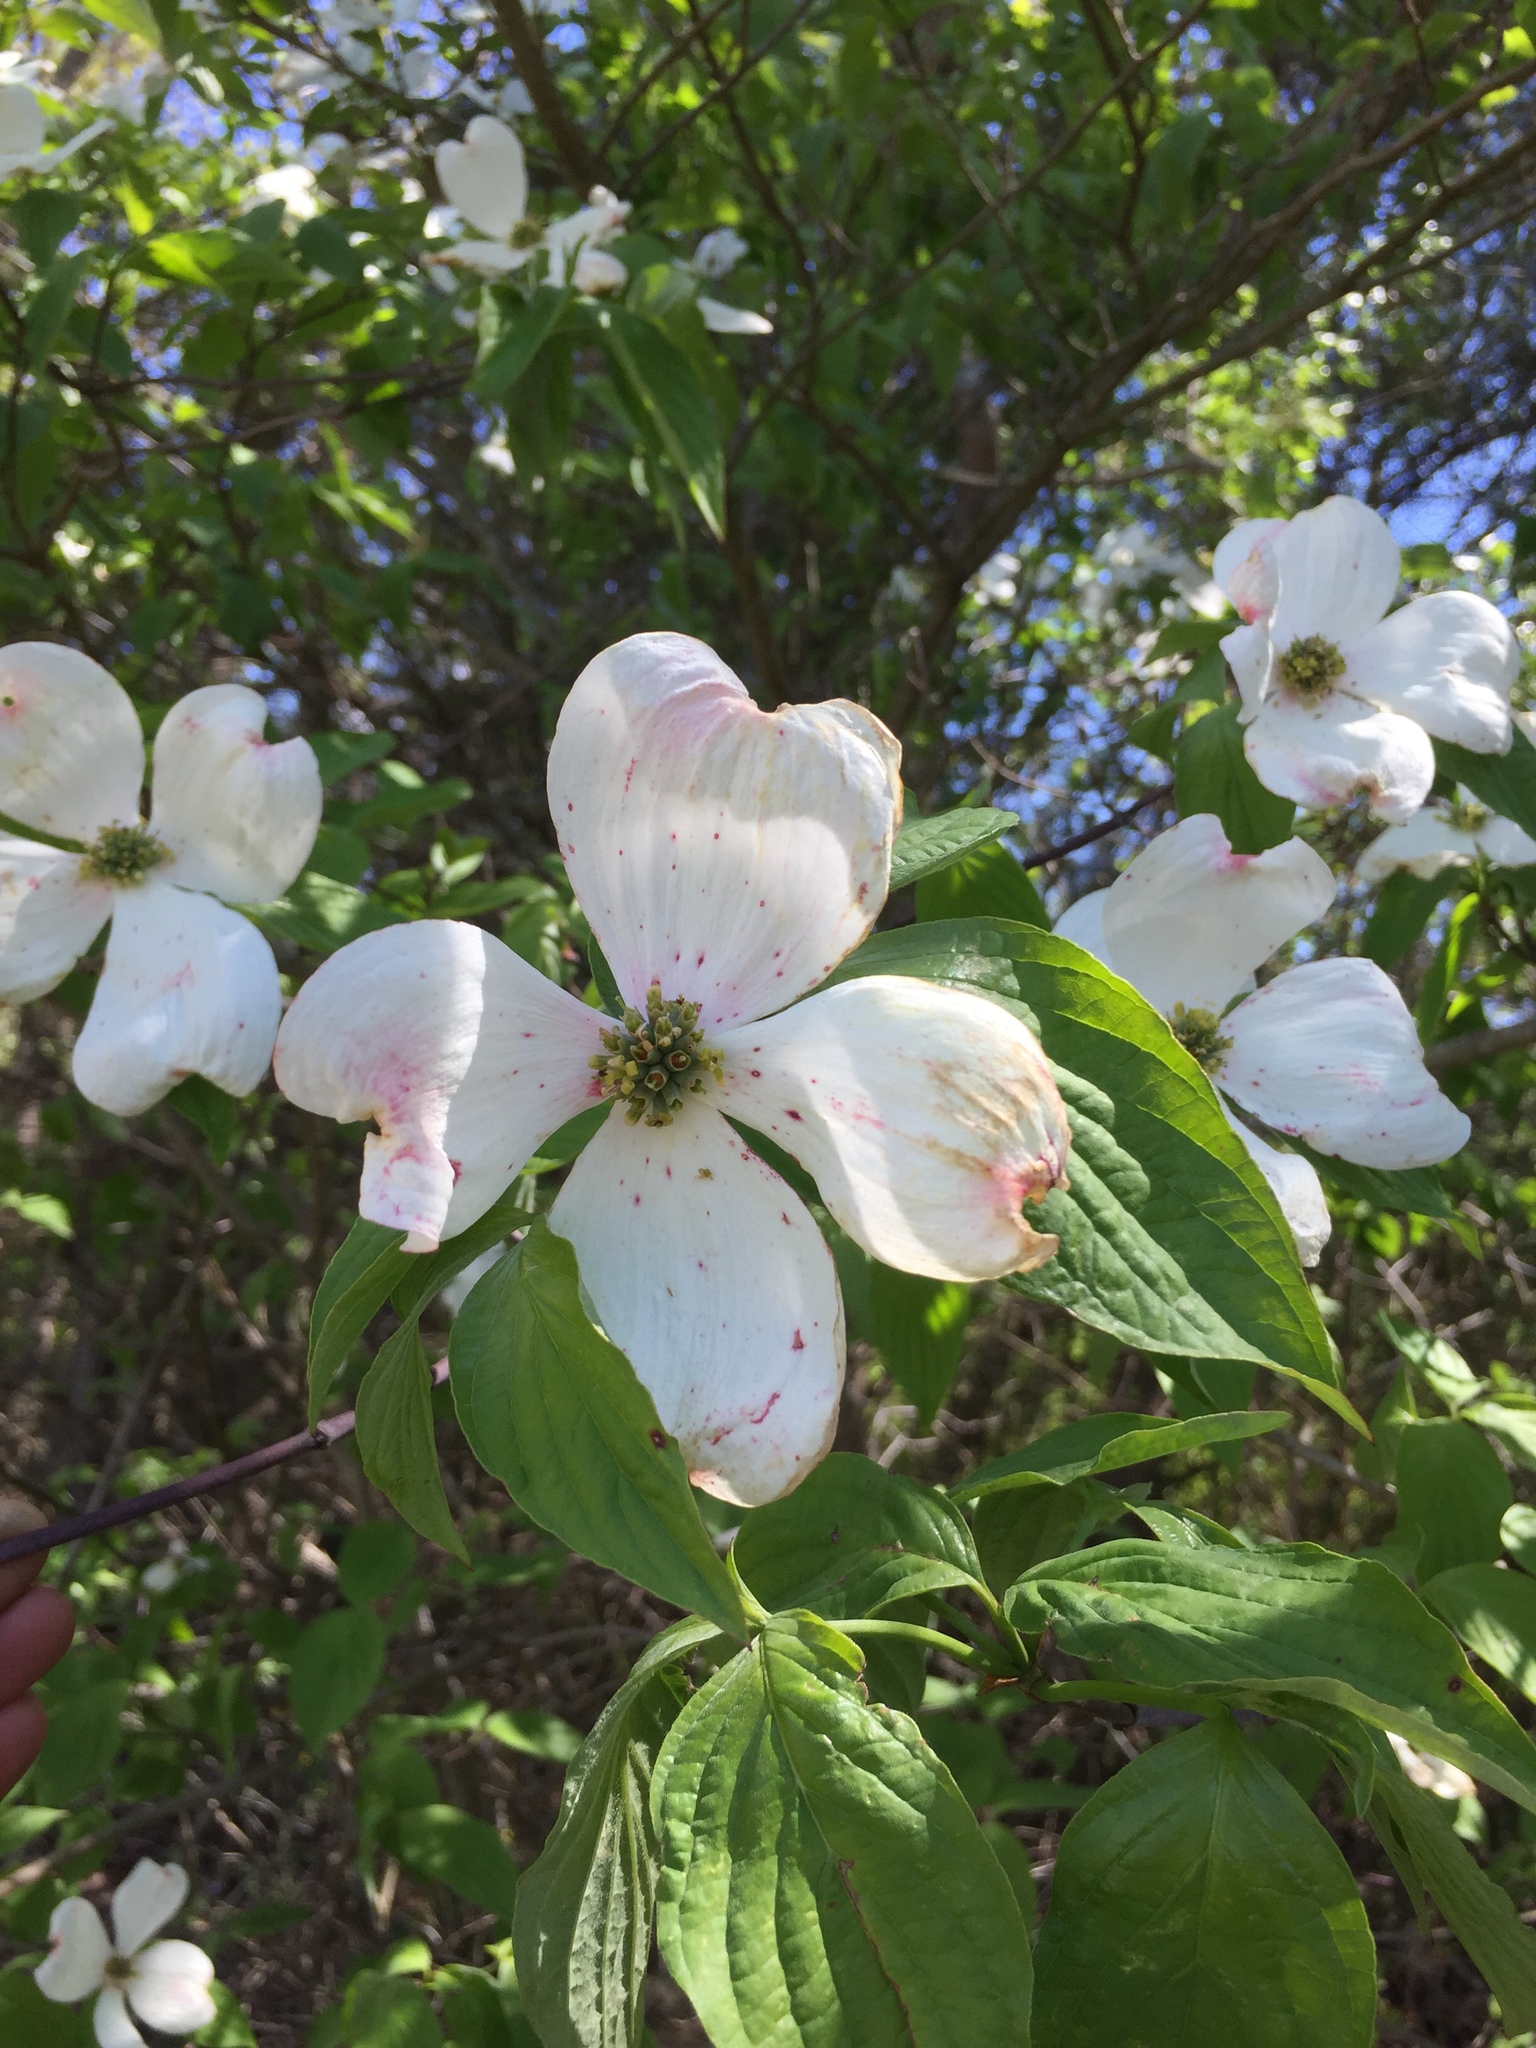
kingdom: Plantae
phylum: Tracheophyta
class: Magnoliopsida
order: Cornales
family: Cornaceae
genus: Cornus
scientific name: Cornus florida
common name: Flowering dogwood
